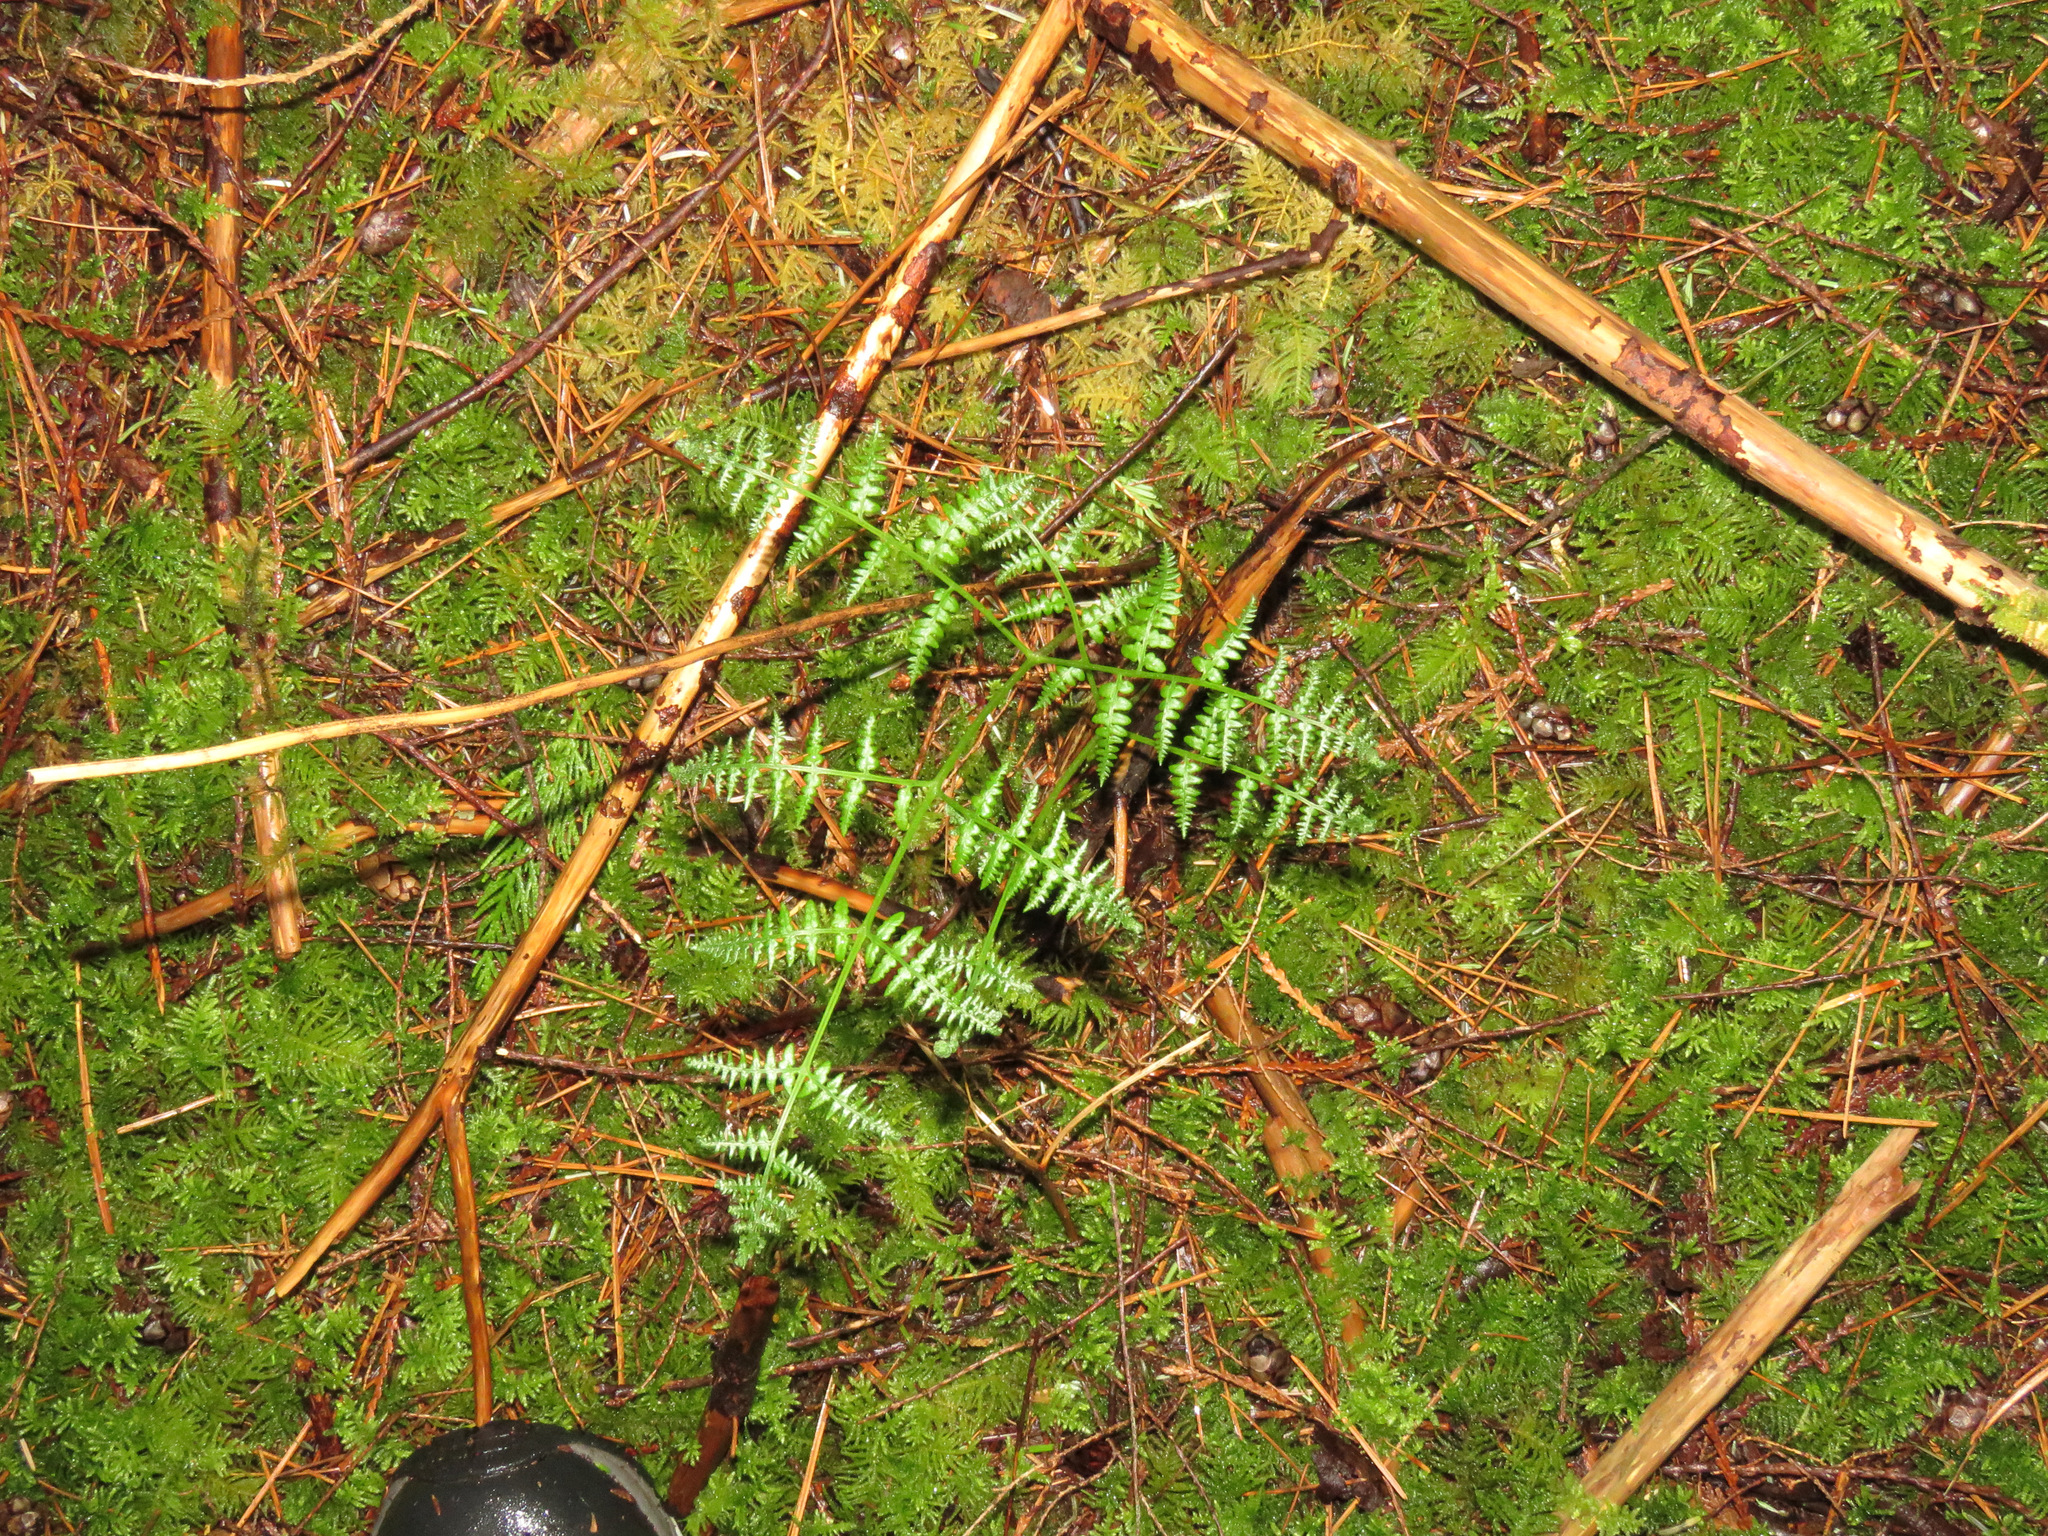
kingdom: Plantae
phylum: Tracheophyta
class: Polypodiopsida
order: Polypodiales
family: Dennstaedtiaceae
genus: Pteridium
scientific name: Pteridium aquilinum
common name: Bracken
